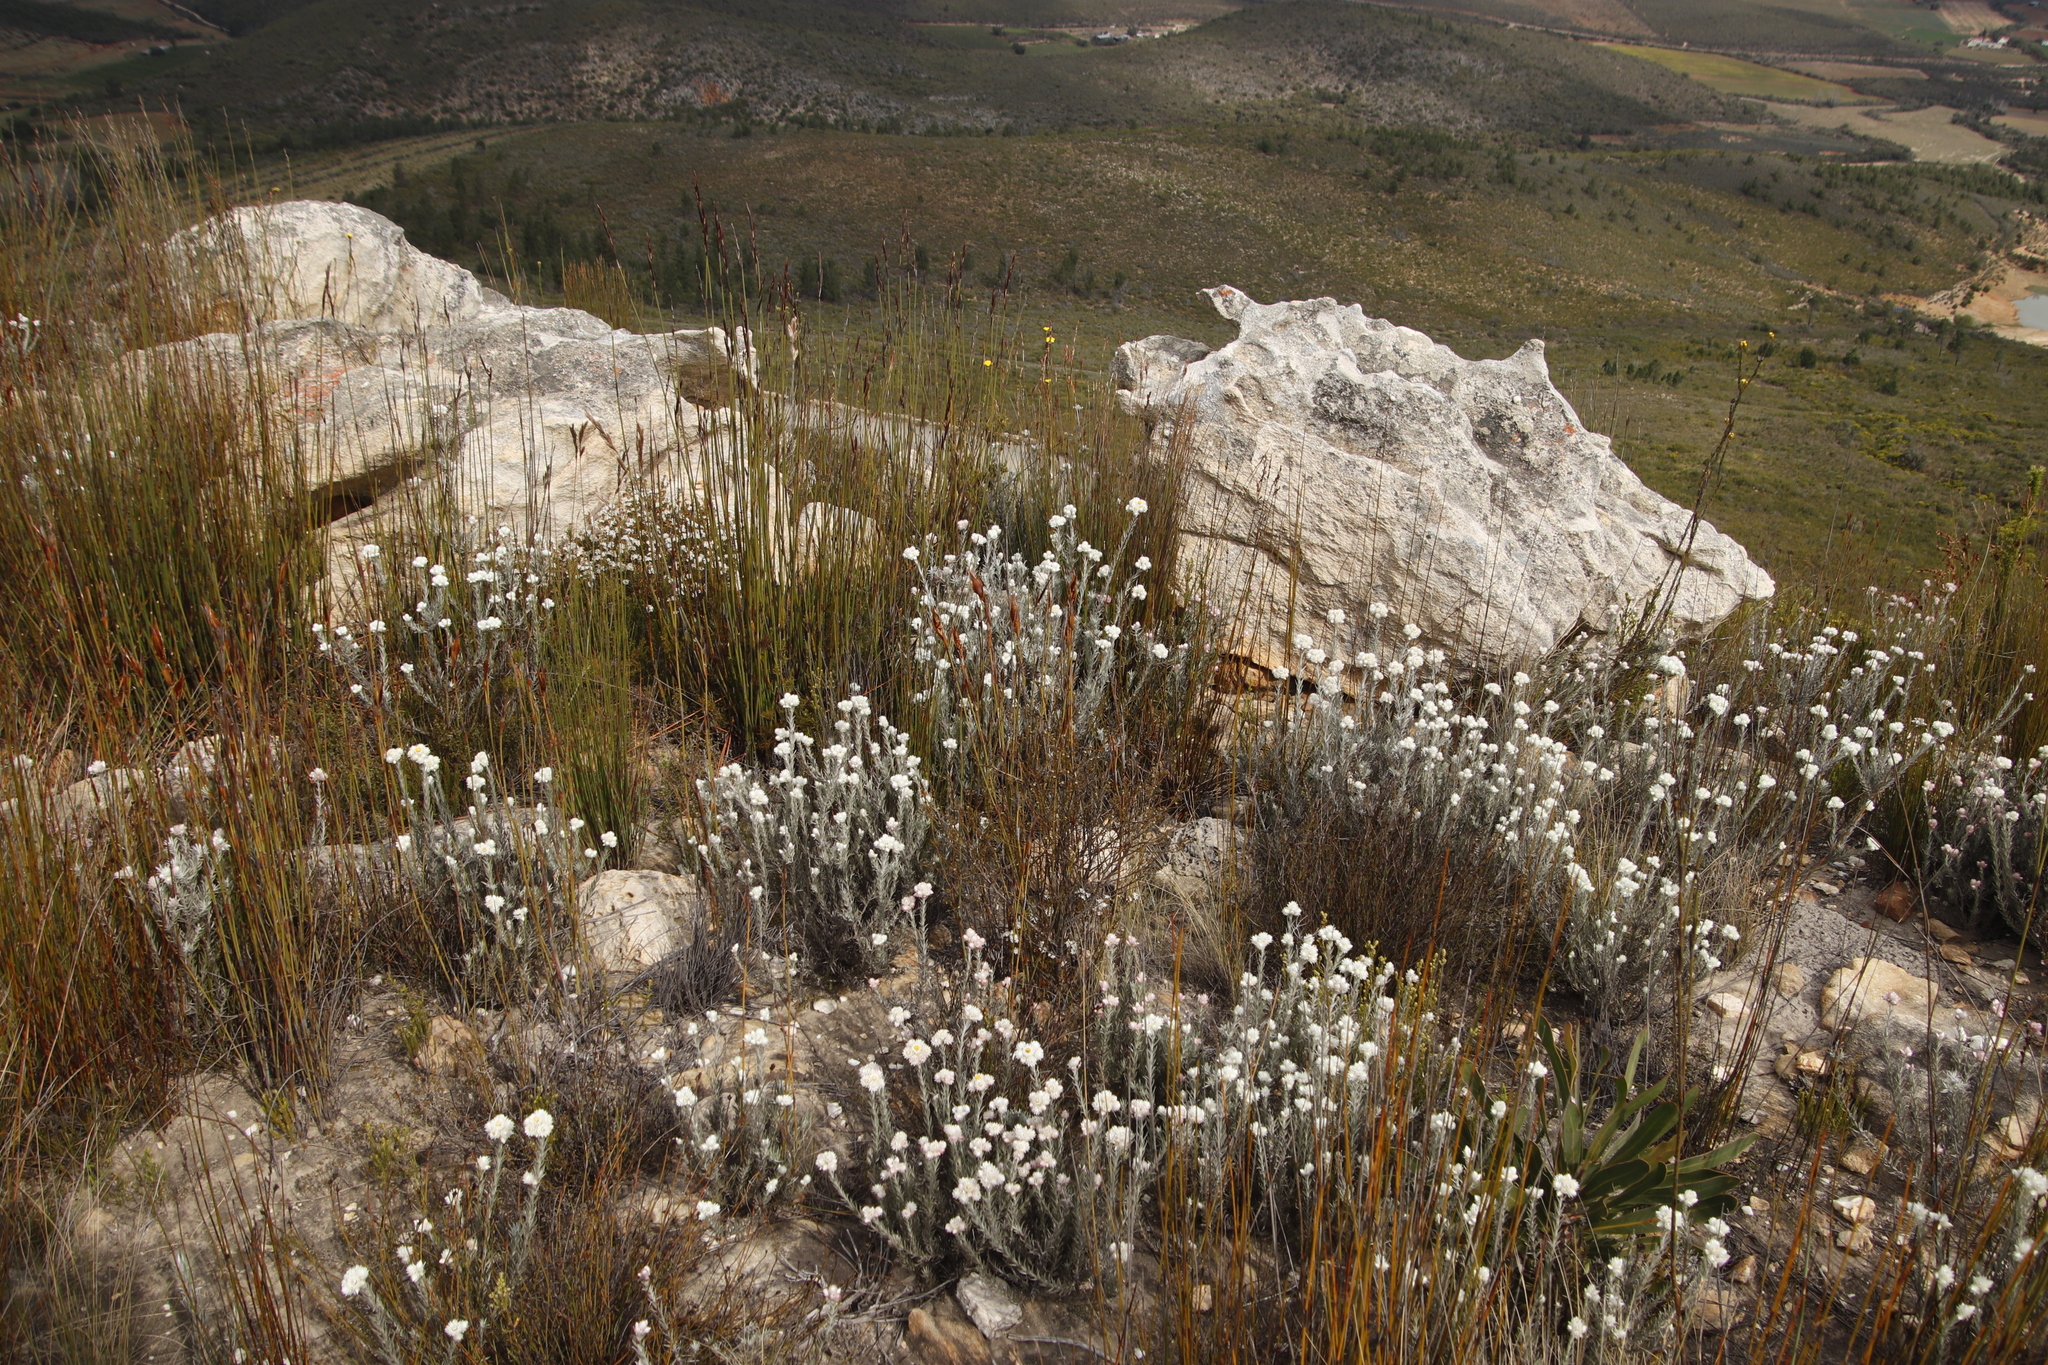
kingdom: Plantae
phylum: Tracheophyta
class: Magnoliopsida
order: Asterales
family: Asteraceae
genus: Achyranthemum
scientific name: Achyranthemum paniculatum
